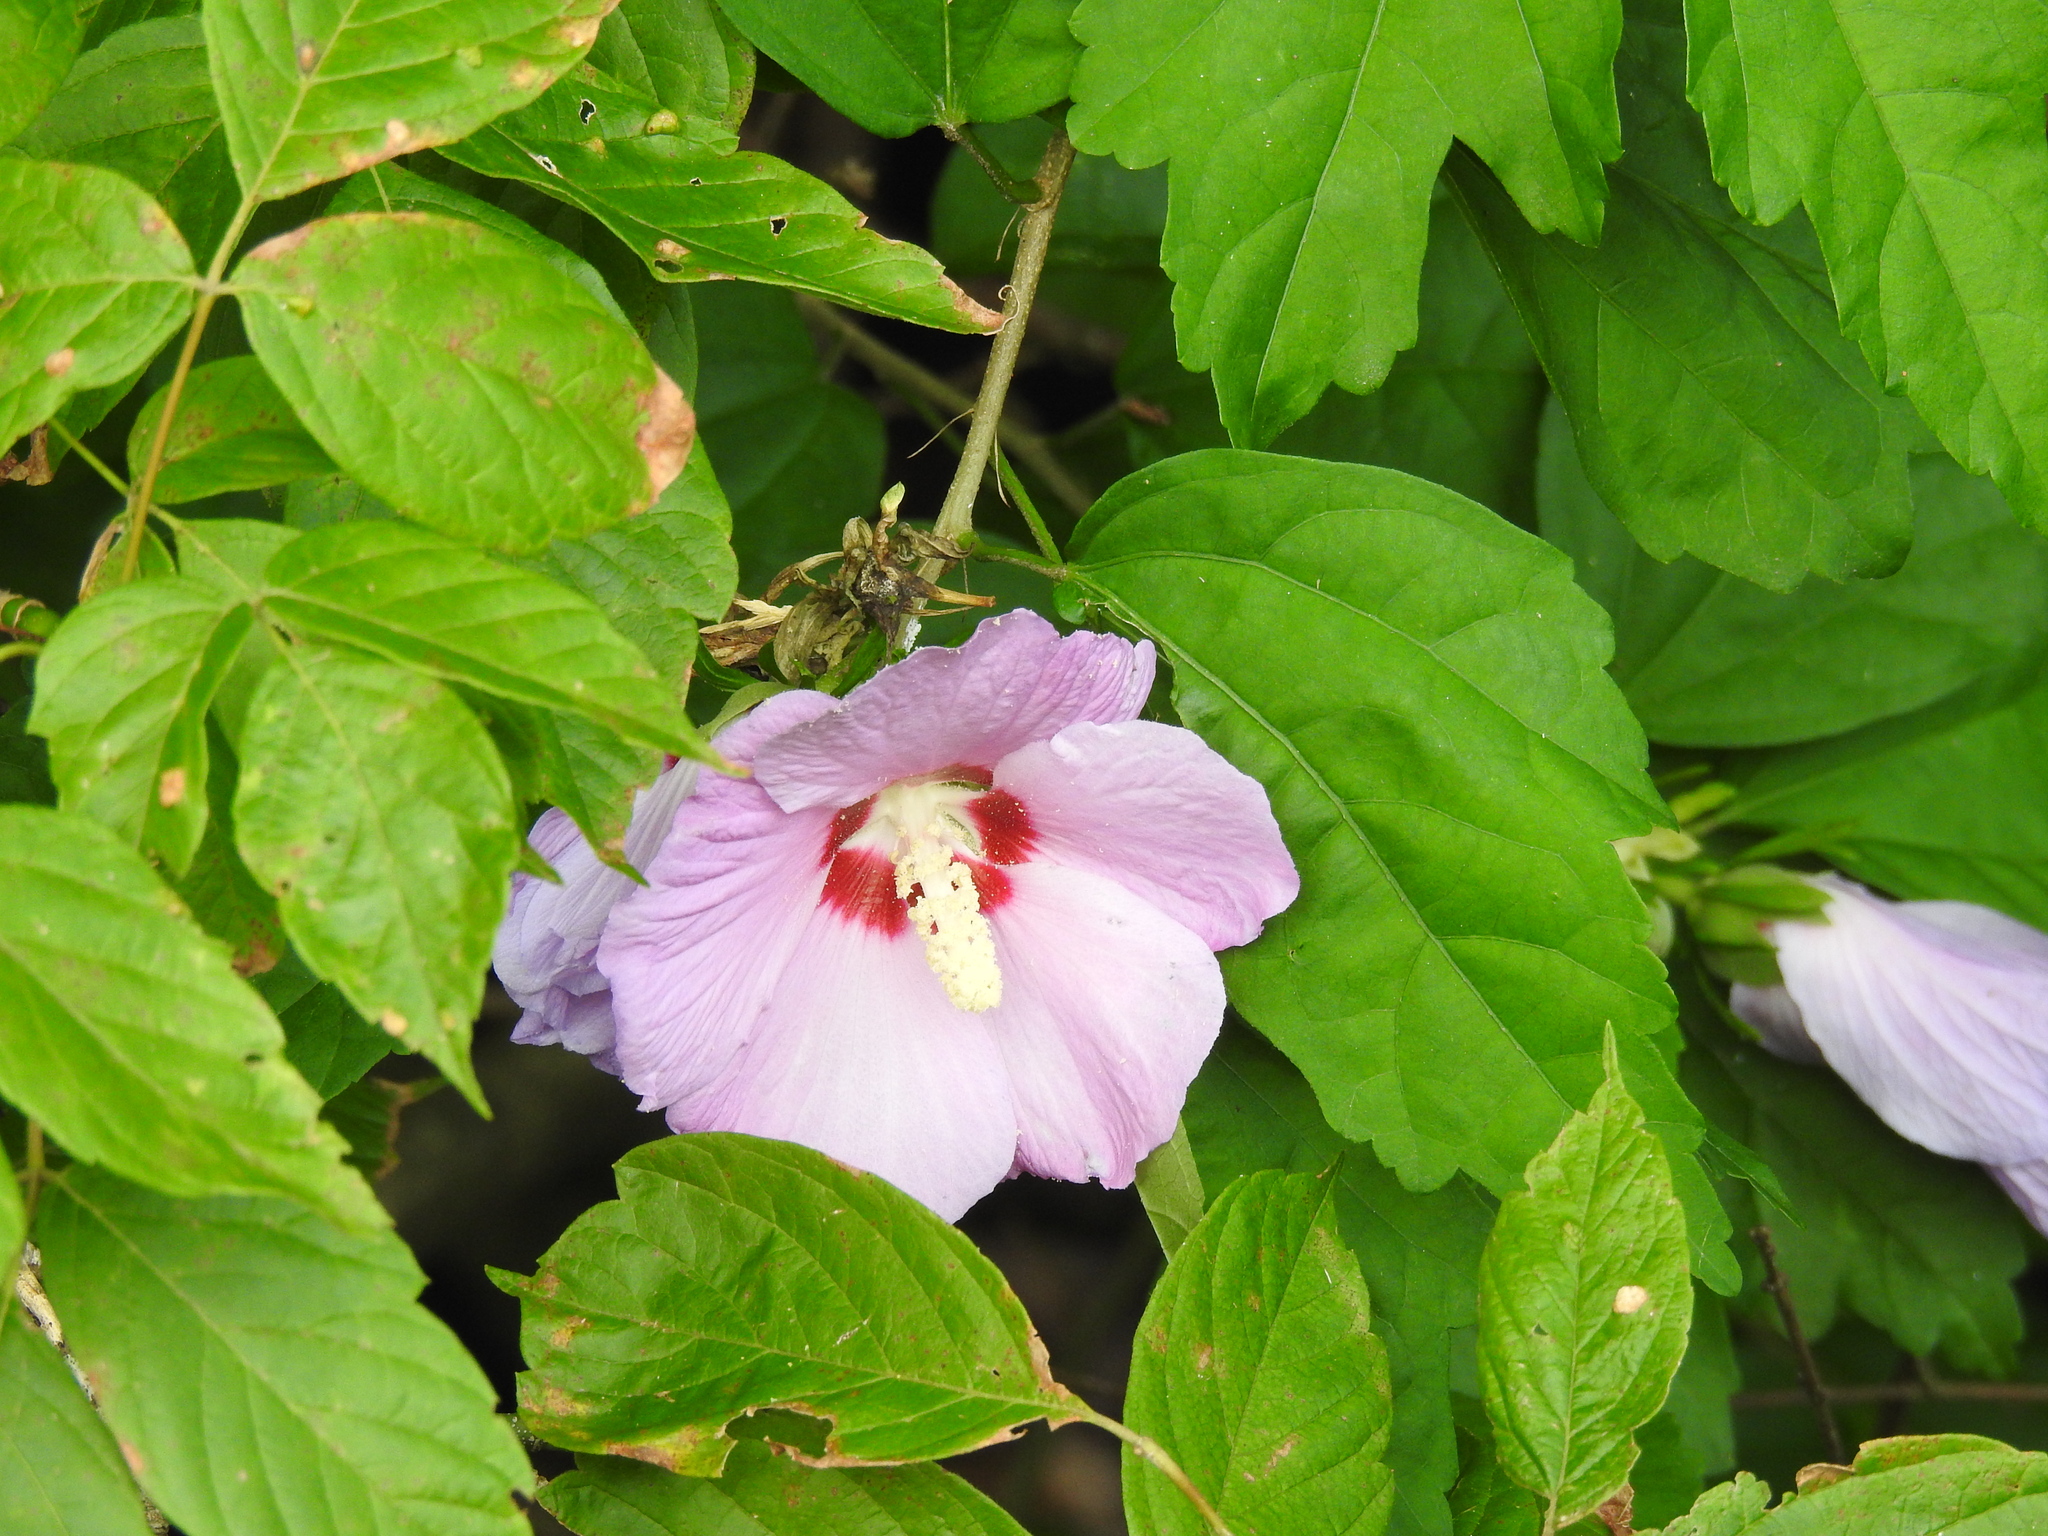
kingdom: Plantae
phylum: Tracheophyta
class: Magnoliopsida
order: Malvales
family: Malvaceae
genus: Hibiscus
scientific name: Hibiscus syriacus
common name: Syrian ketmia
